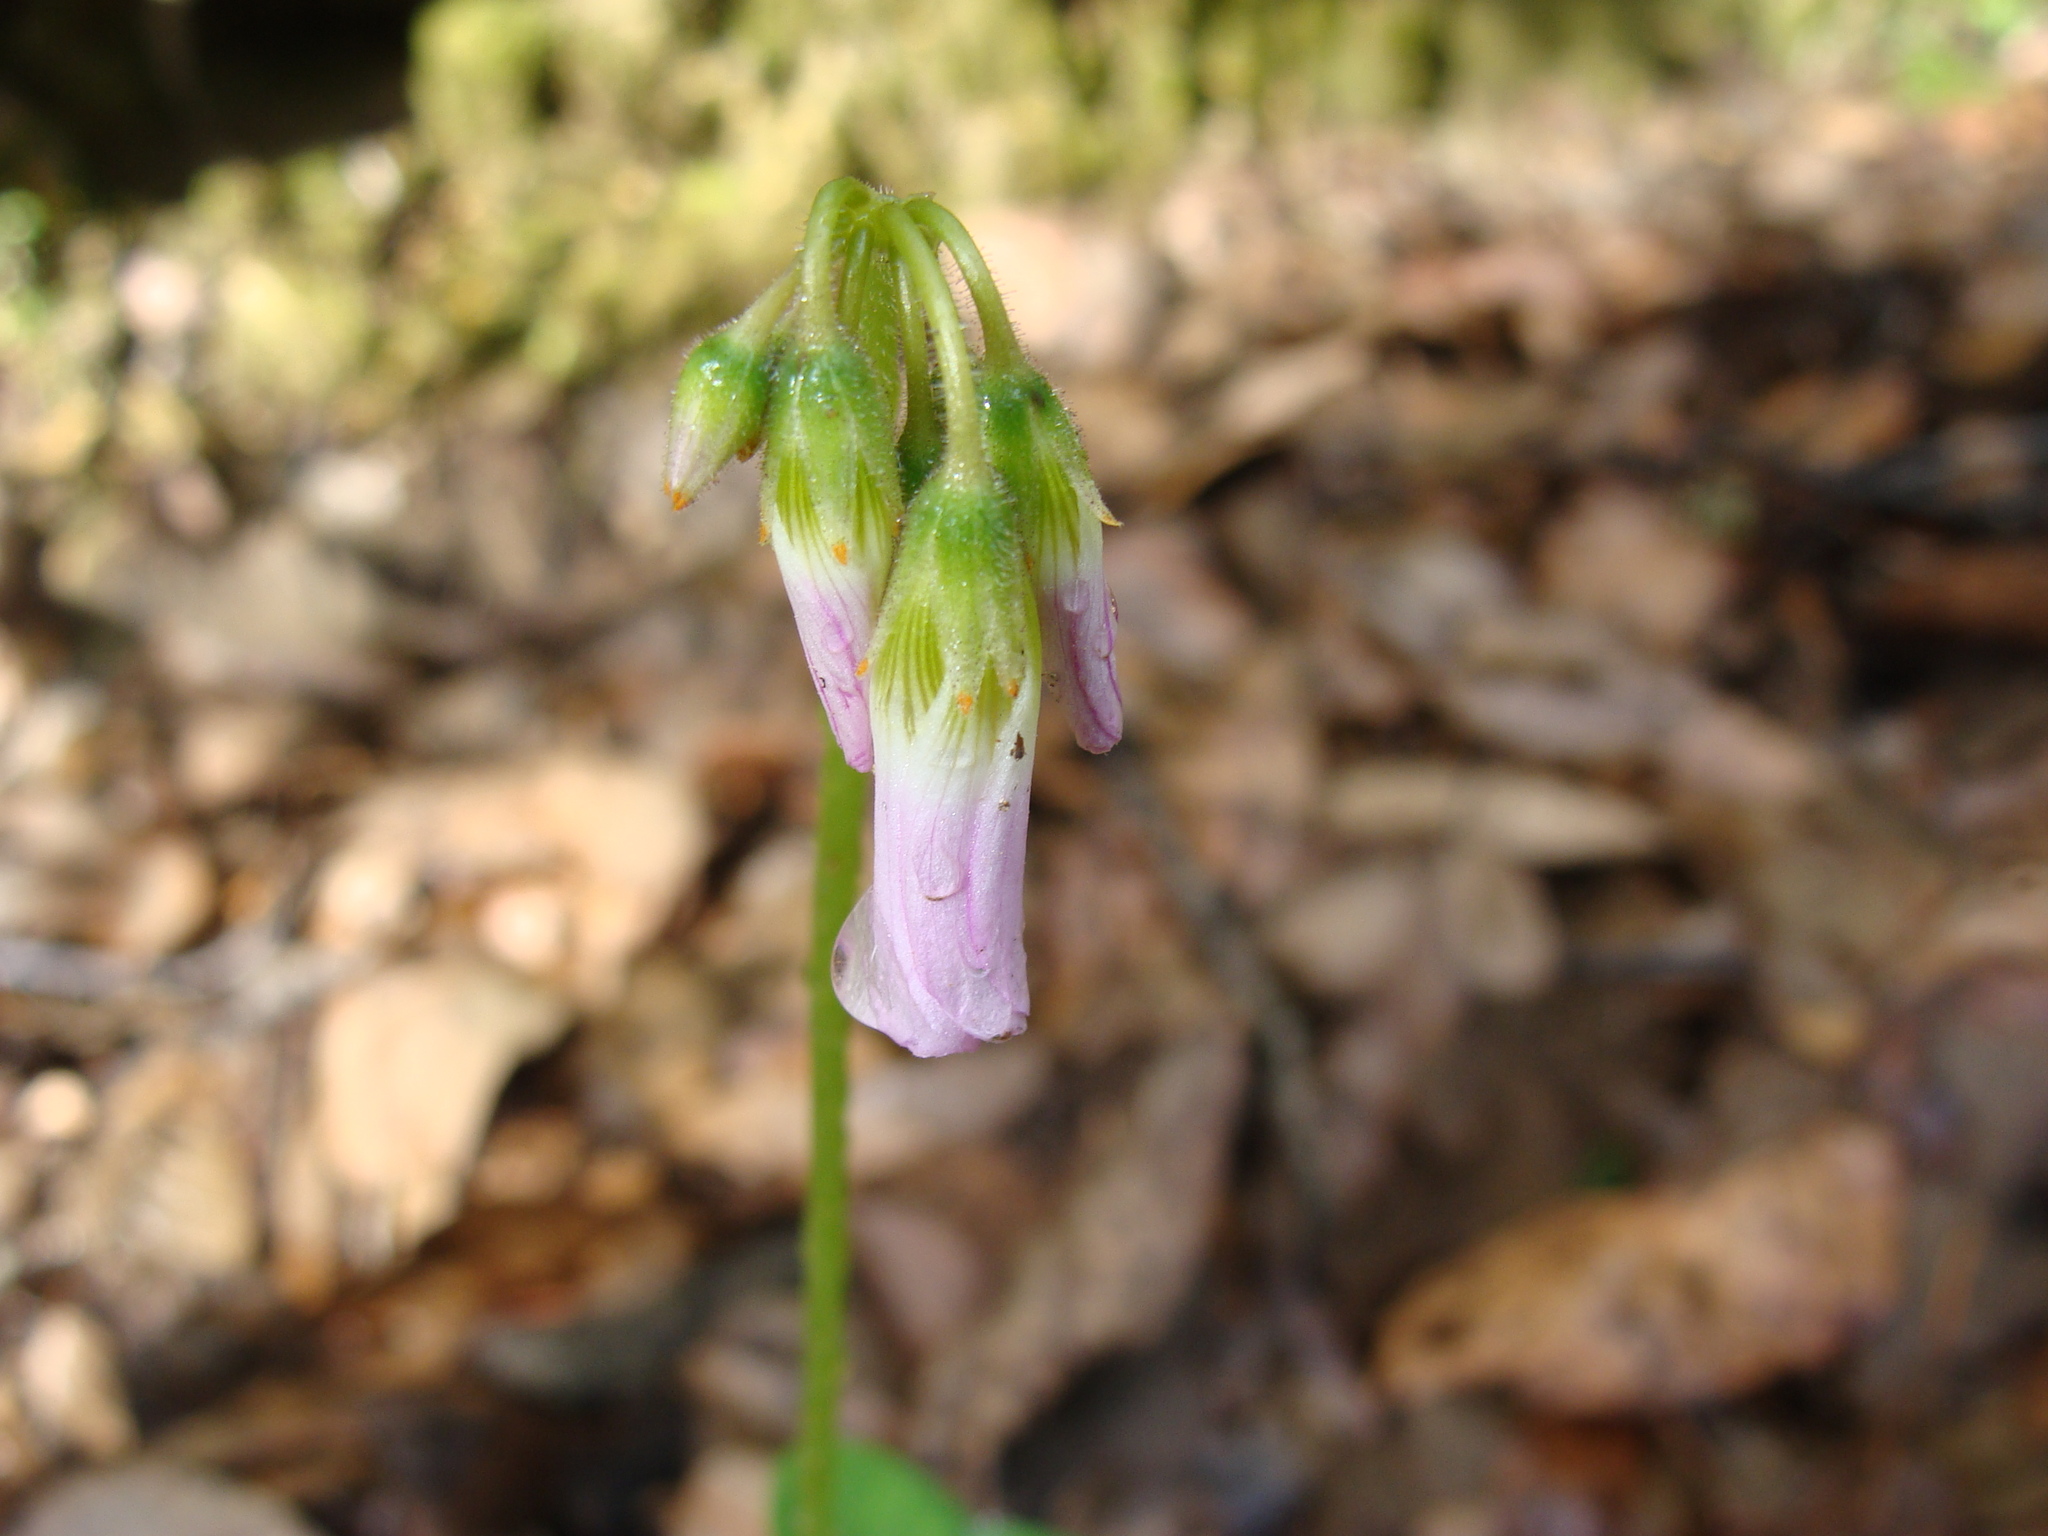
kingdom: Plantae
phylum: Tracheophyta
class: Magnoliopsida
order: Oxalidales
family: Oxalidaceae
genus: Oxalis
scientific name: Oxalis
